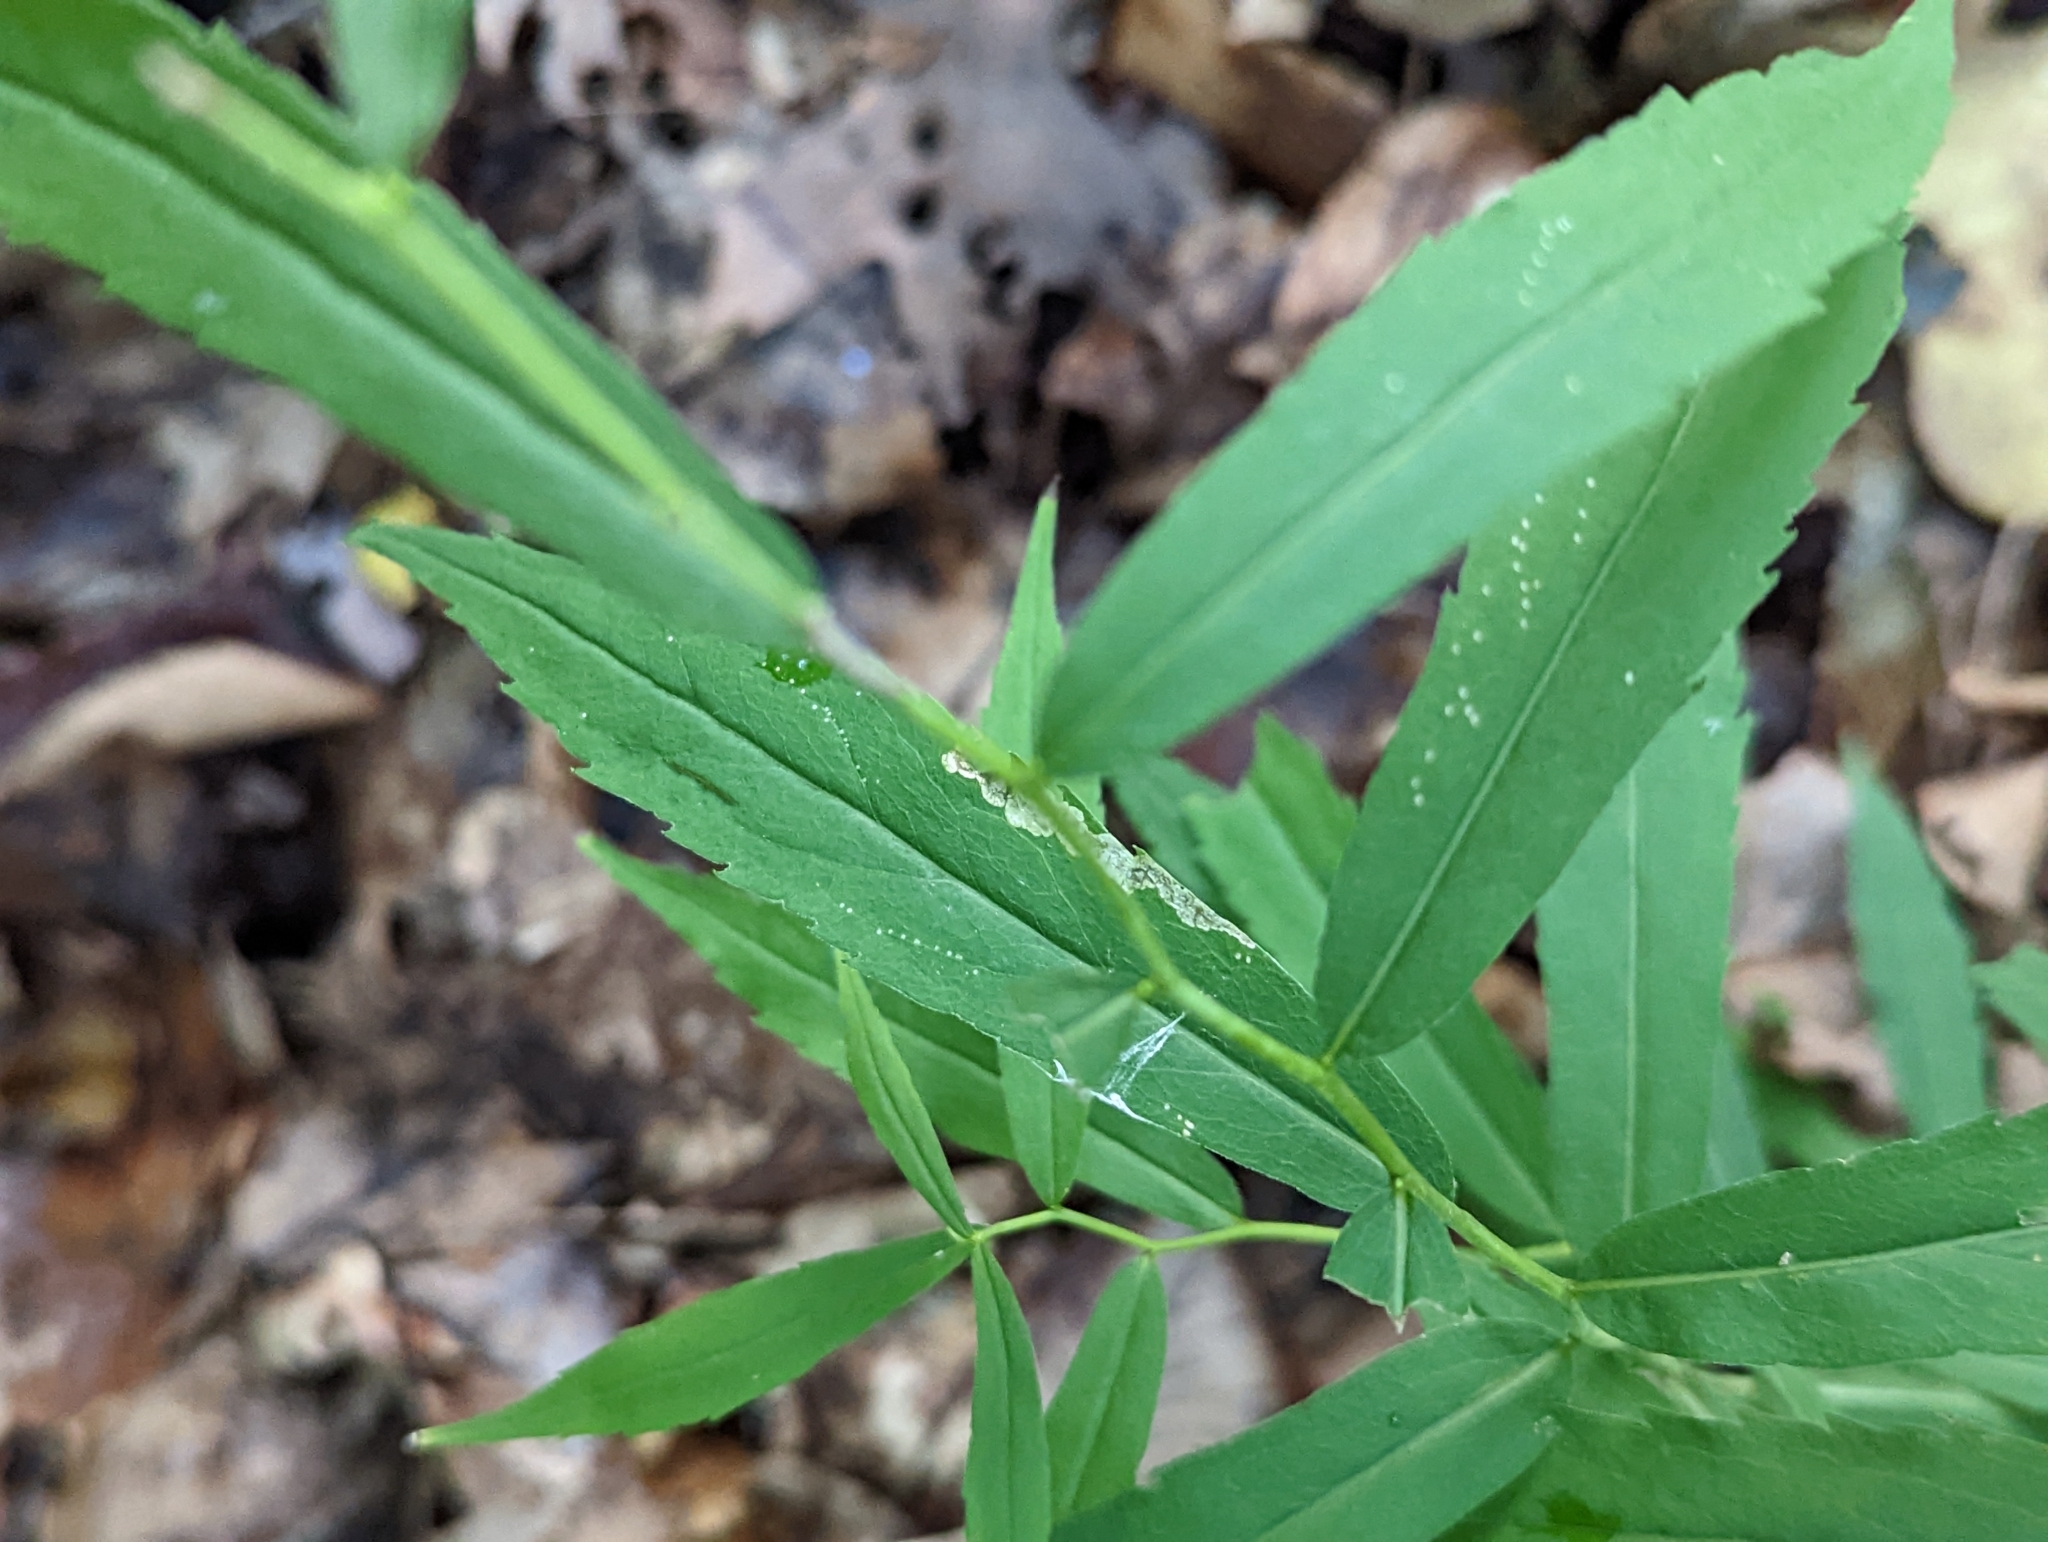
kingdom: Plantae
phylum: Tracheophyta
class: Magnoliopsida
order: Asterales
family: Asteraceae
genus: Solidago
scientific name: Solidago caesia
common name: Woodland goldenrod
